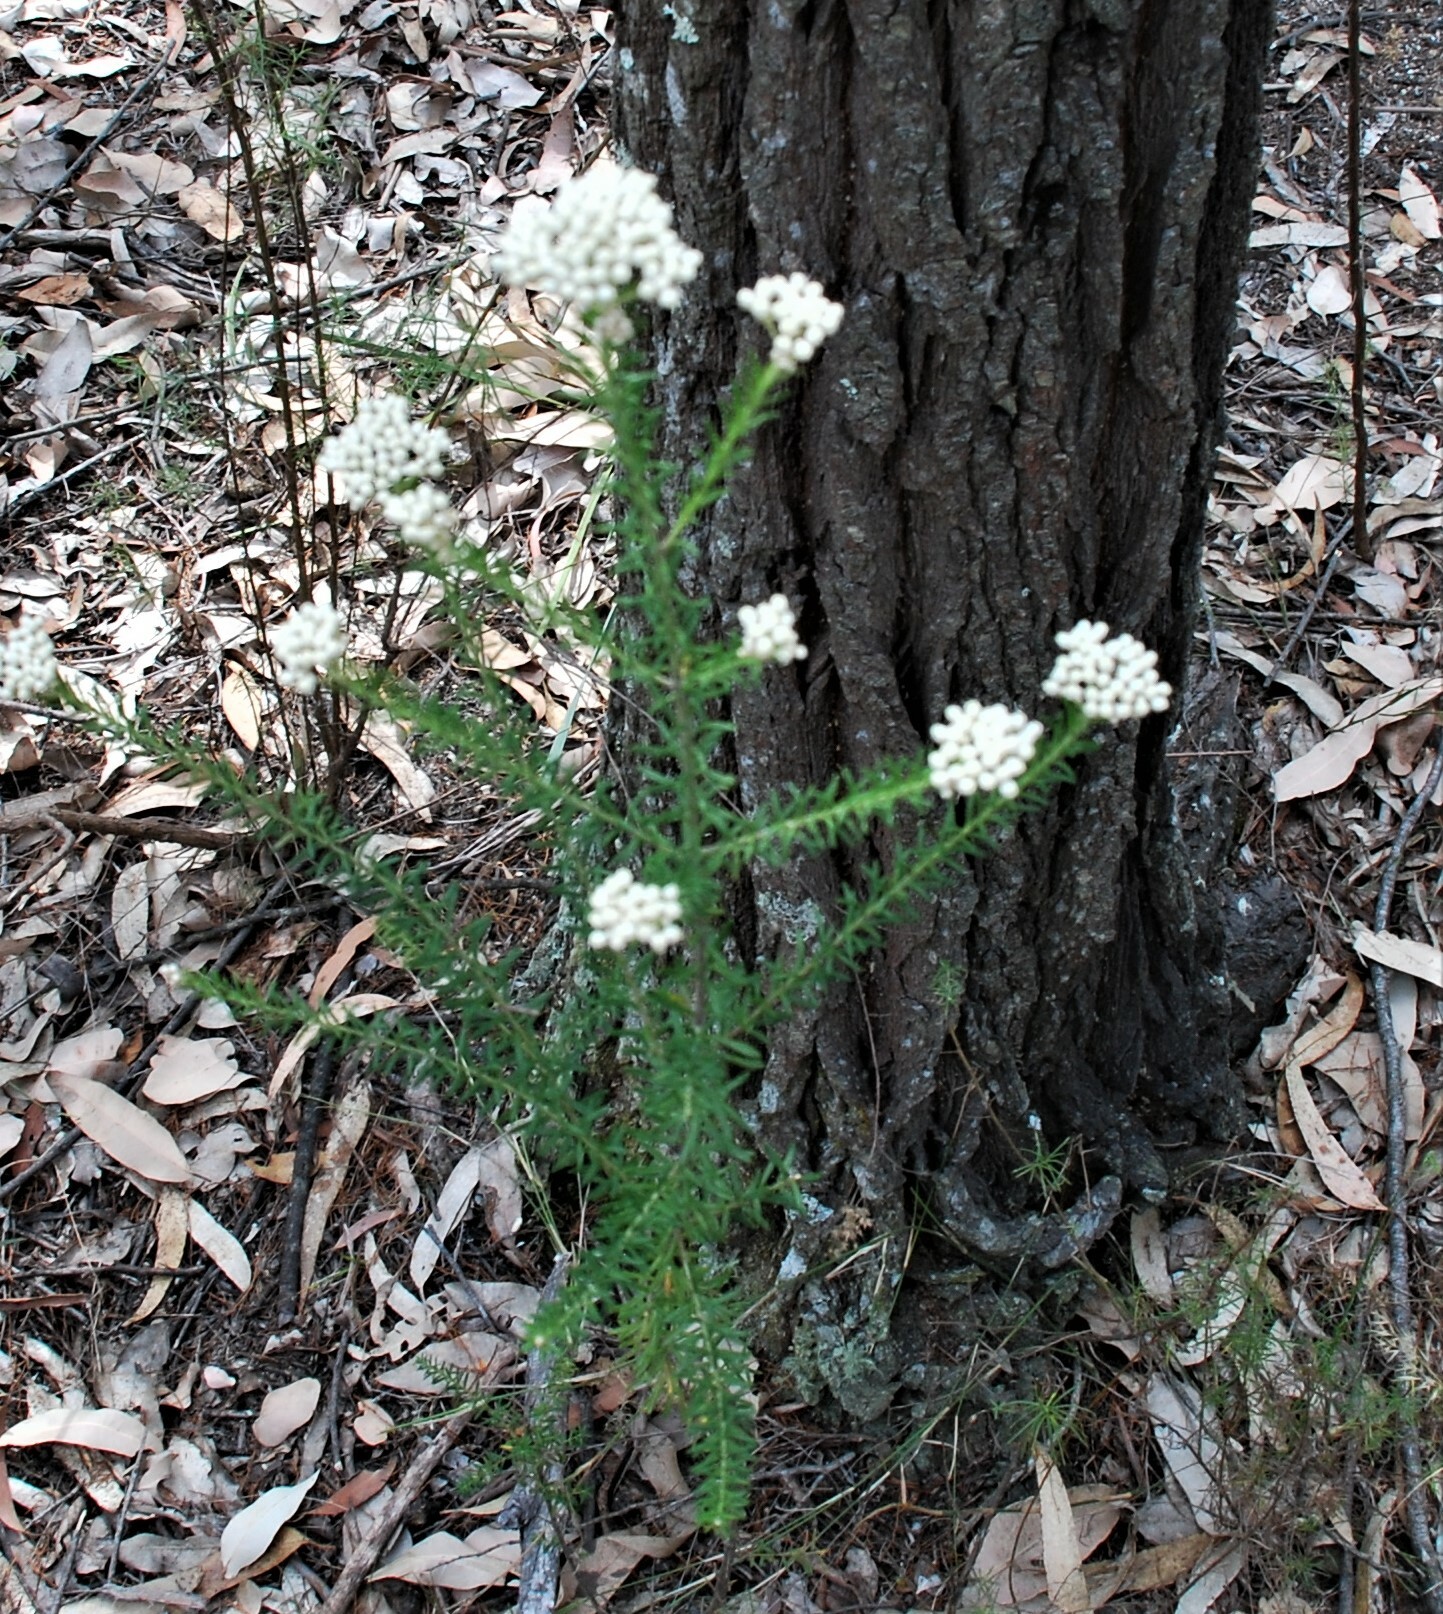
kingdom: Plantae
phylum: Tracheophyta
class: Magnoliopsida
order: Asterales
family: Asteraceae
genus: Ozothamnus
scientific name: Ozothamnus diosmifolius
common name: White-dogwood
